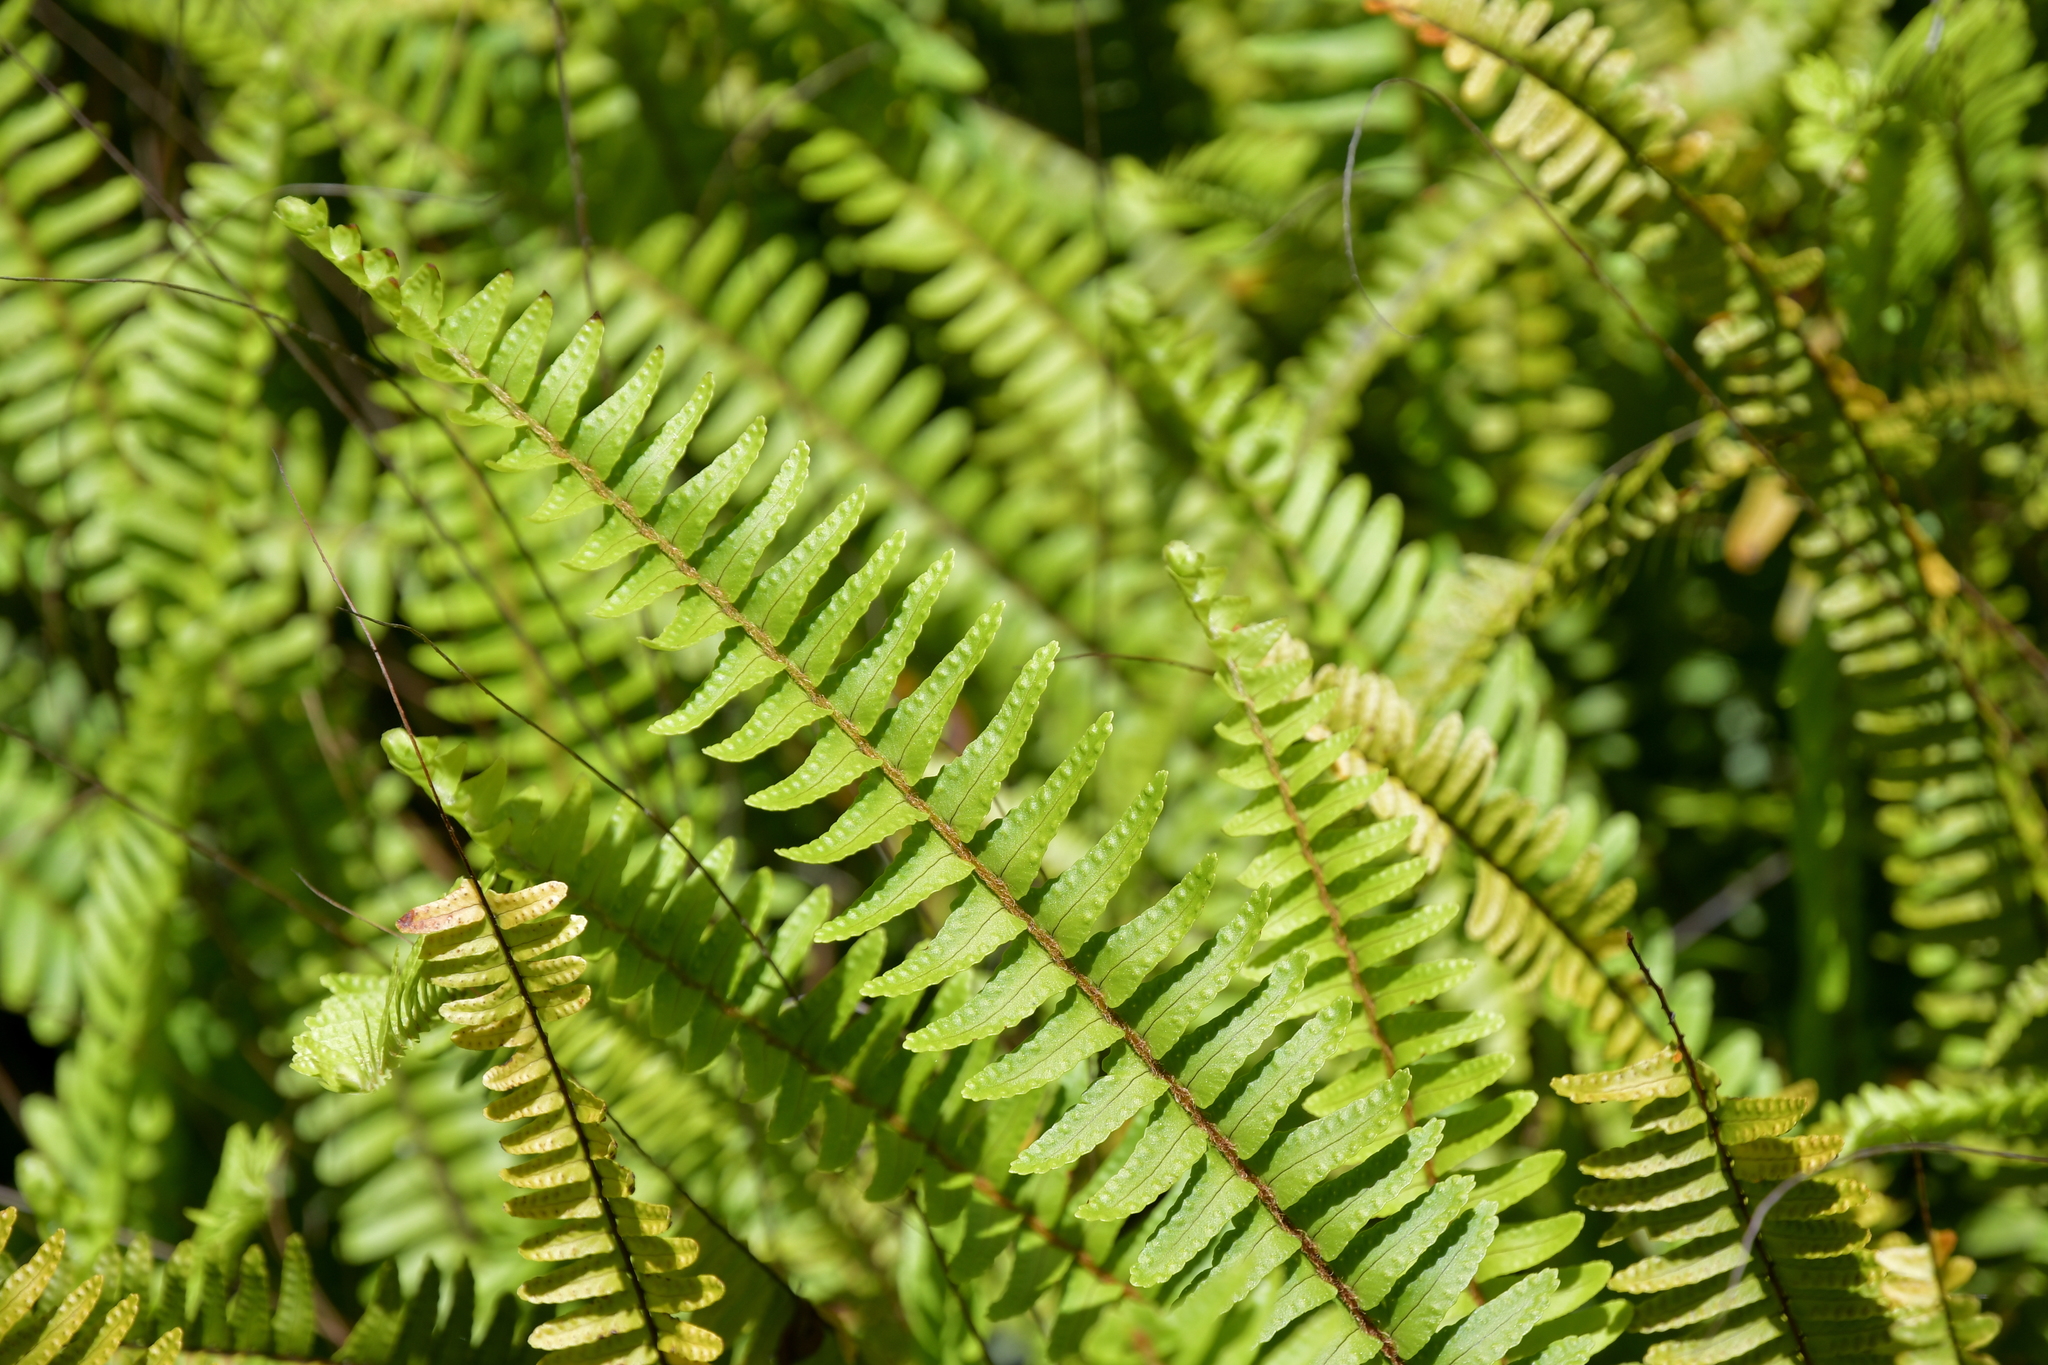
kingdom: Plantae
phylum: Tracheophyta
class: Polypodiopsida
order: Polypodiales
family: Nephrolepidaceae
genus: Nephrolepis
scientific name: Nephrolepis flexuosa
